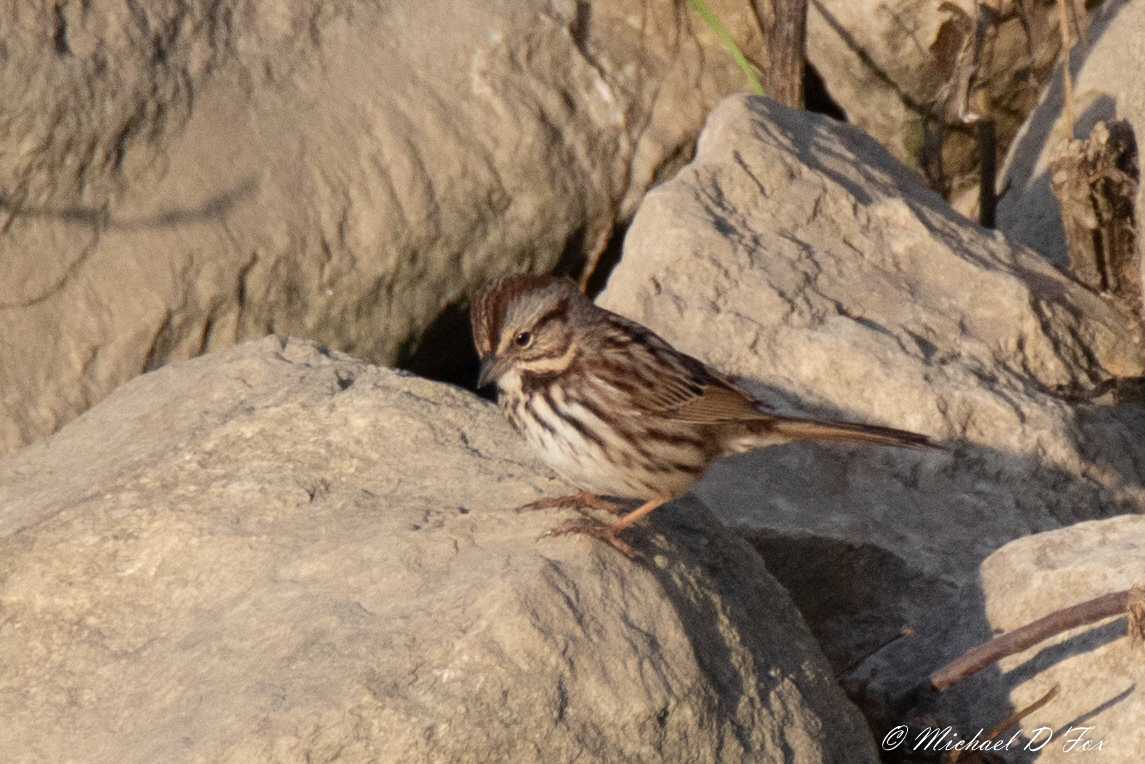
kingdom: Animalia
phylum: Chordata
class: Aves
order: Passeriformes
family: Passerellidae
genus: Melospiza
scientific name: Melospiza melodia
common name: Song sparrow
